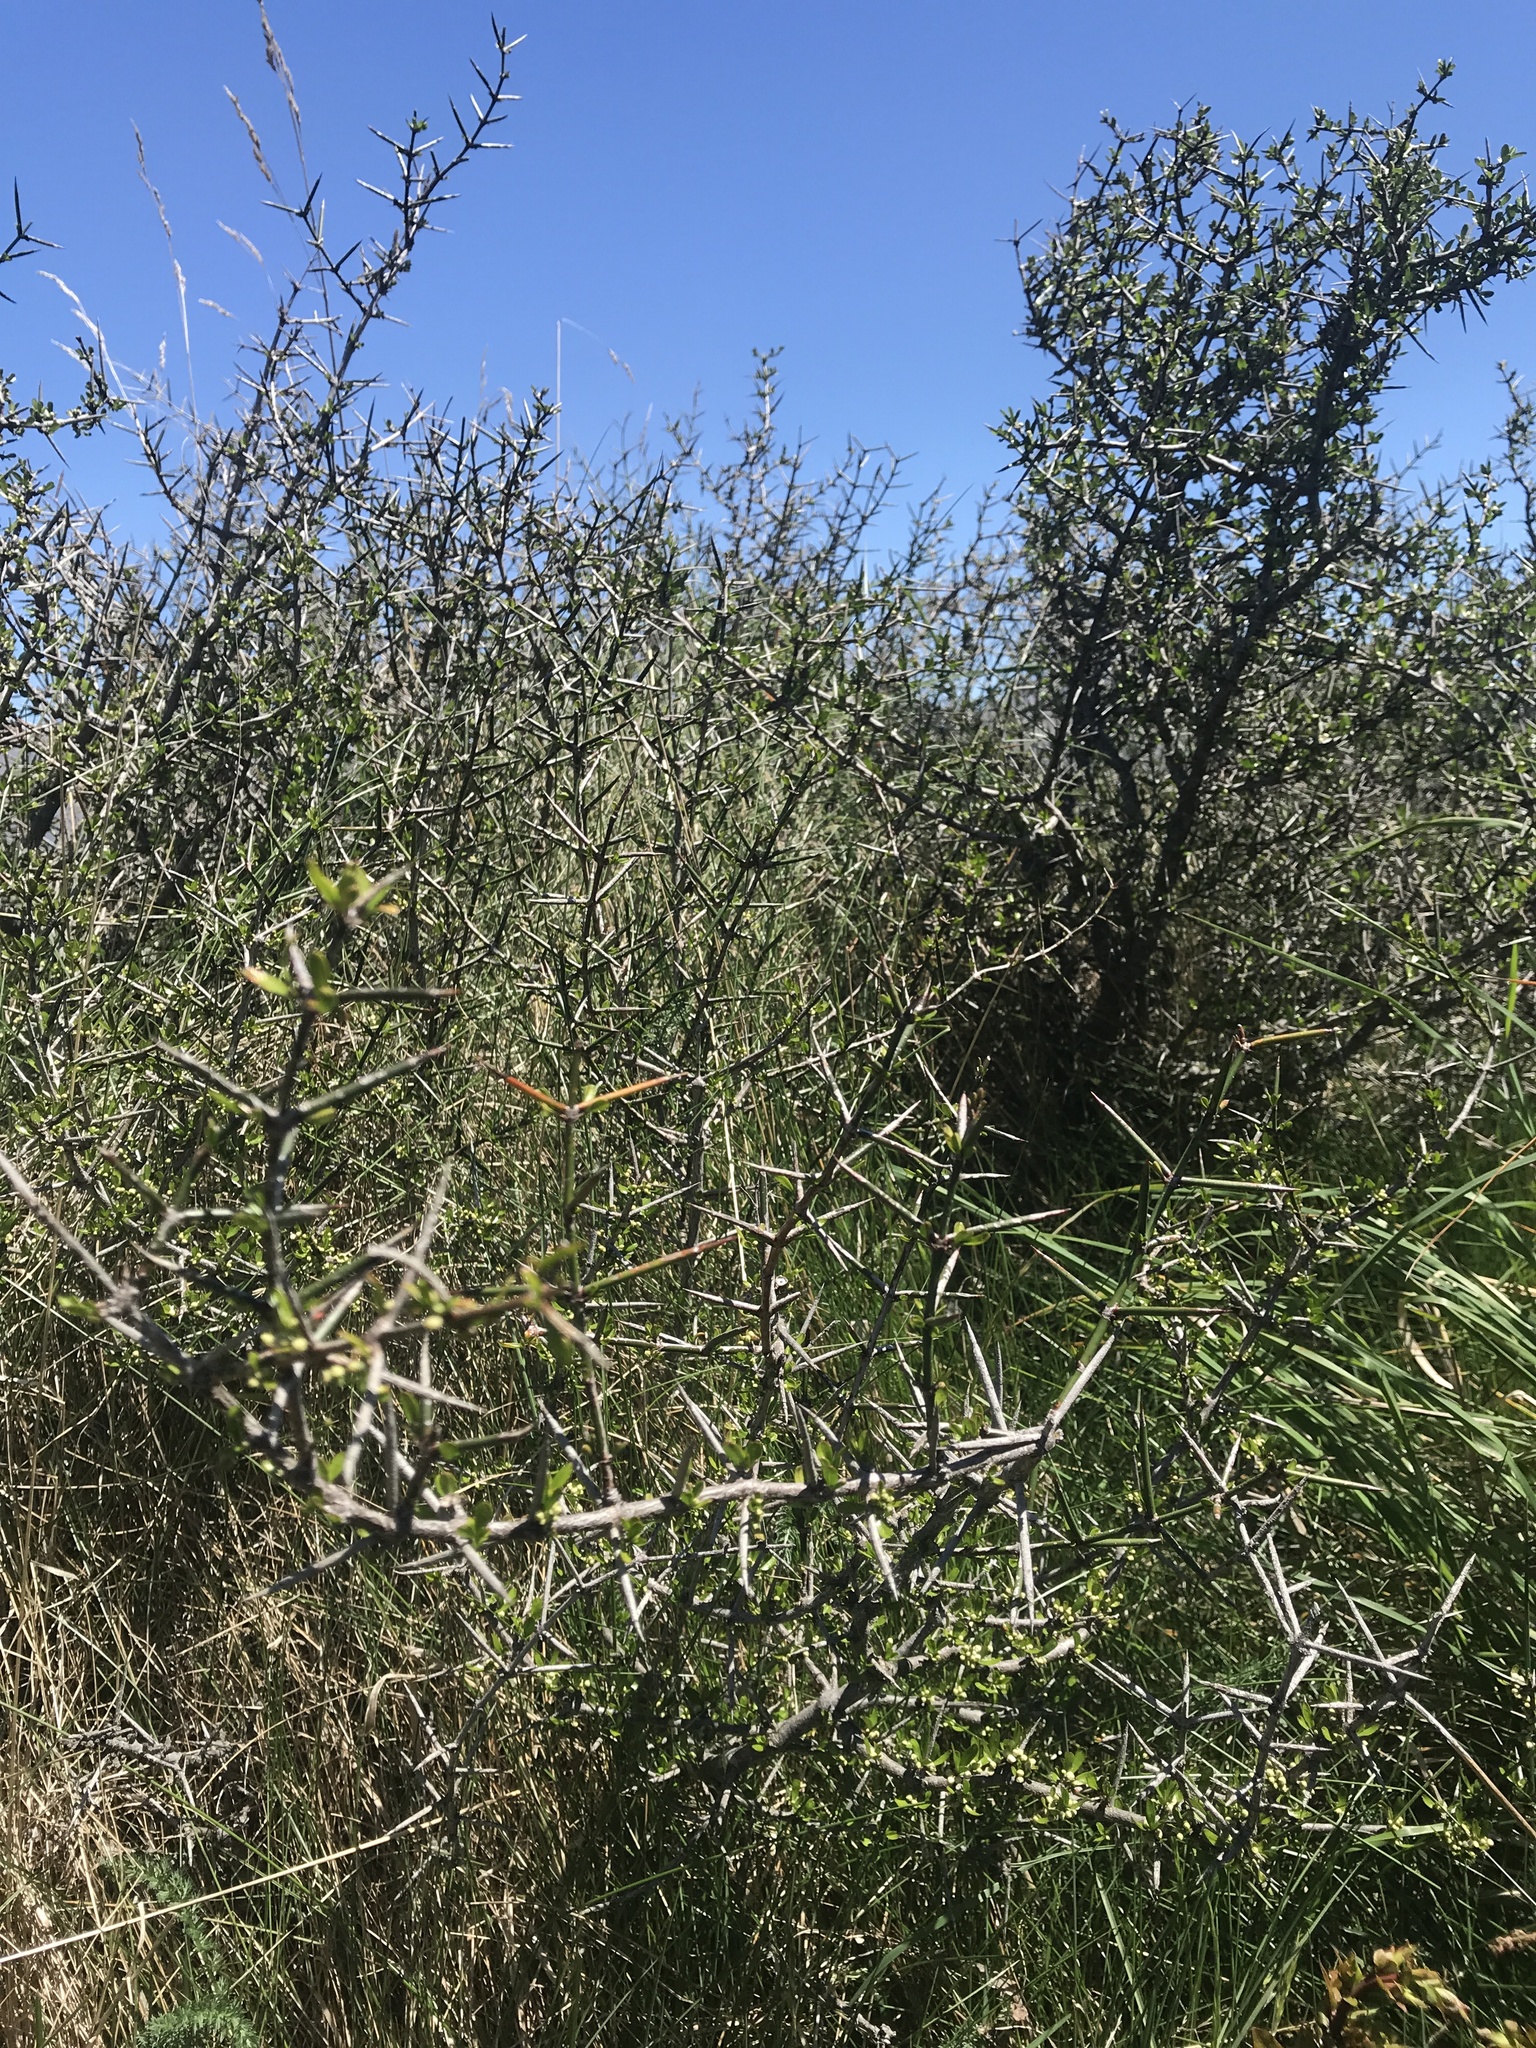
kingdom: Plantae
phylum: Tracheophyta
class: Magnoliopsida
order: Rosales
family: Rhamnaceae
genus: Discaria
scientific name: Discaria toumatou
